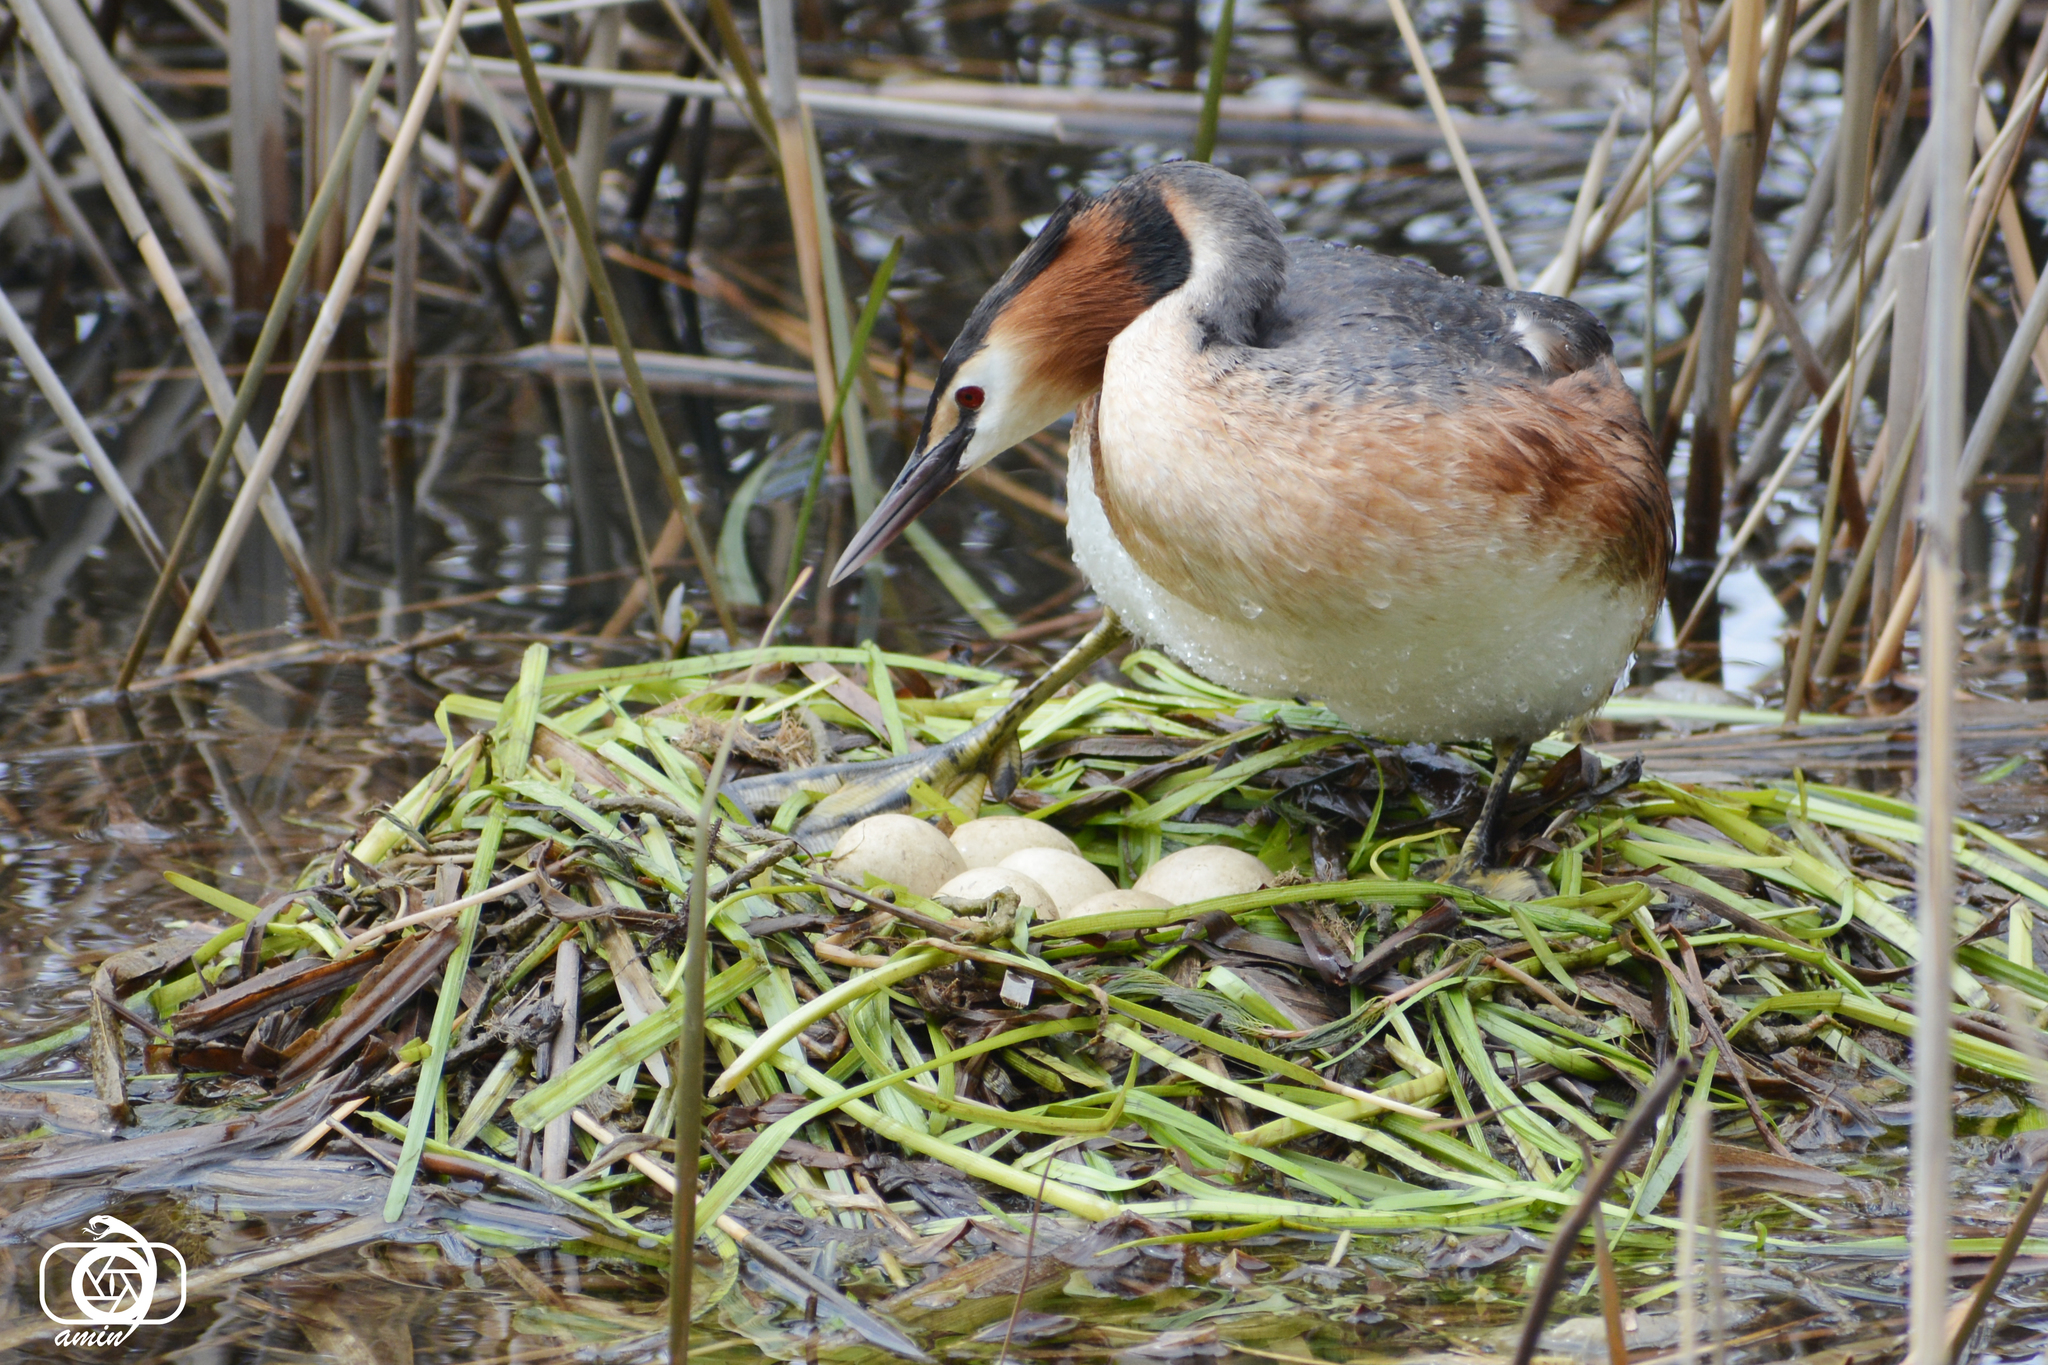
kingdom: Animalia
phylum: Chordata
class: Aves
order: Podicipediformes
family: Podicipedidae
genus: Podiceps
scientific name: Podiceps cristatus
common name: Great crested grebe
